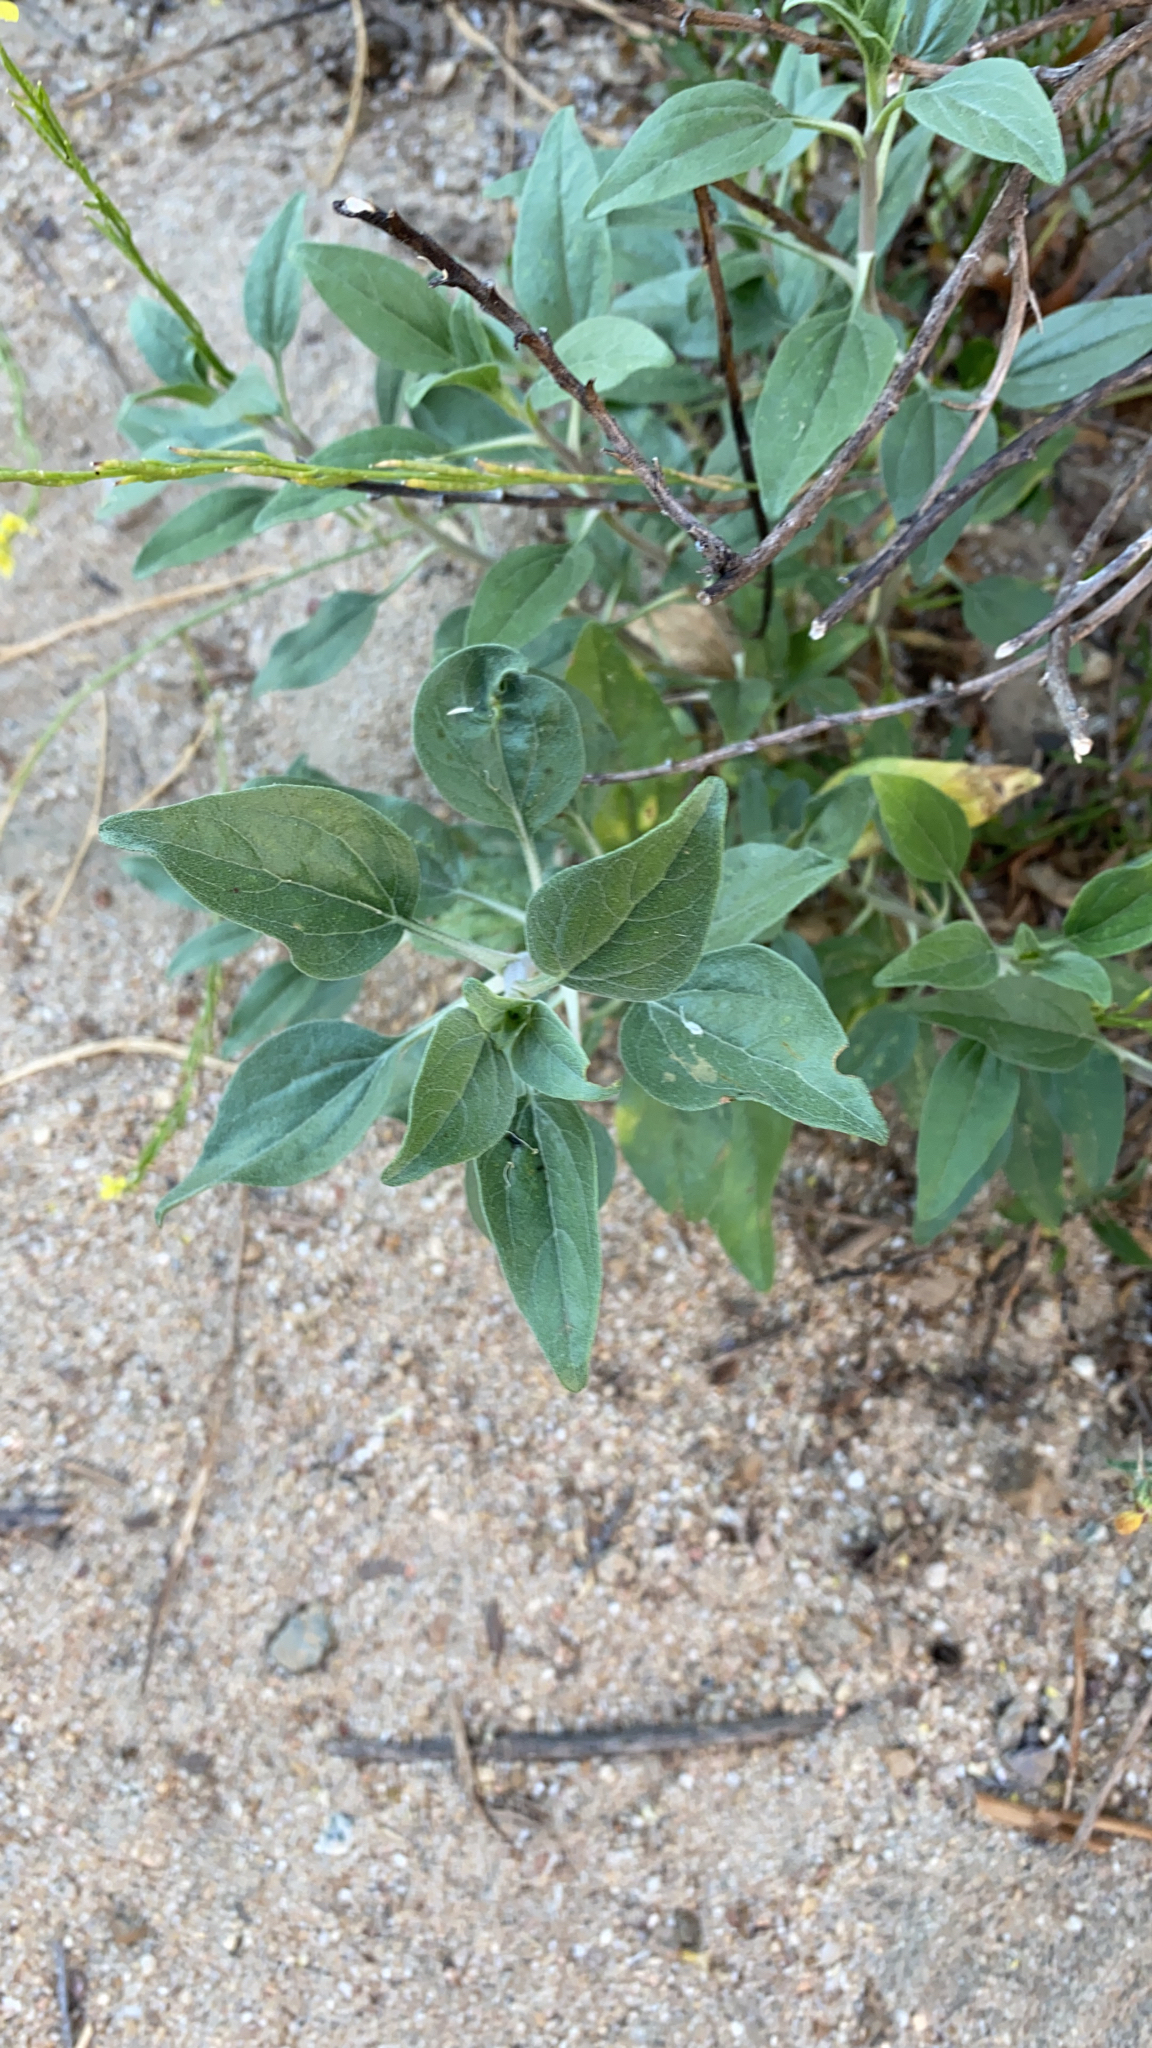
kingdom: Plantae
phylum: Tracheophyta
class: Magnoliopsida
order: Asterales
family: Asteraceae
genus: Encelia
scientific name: Encelia californica
